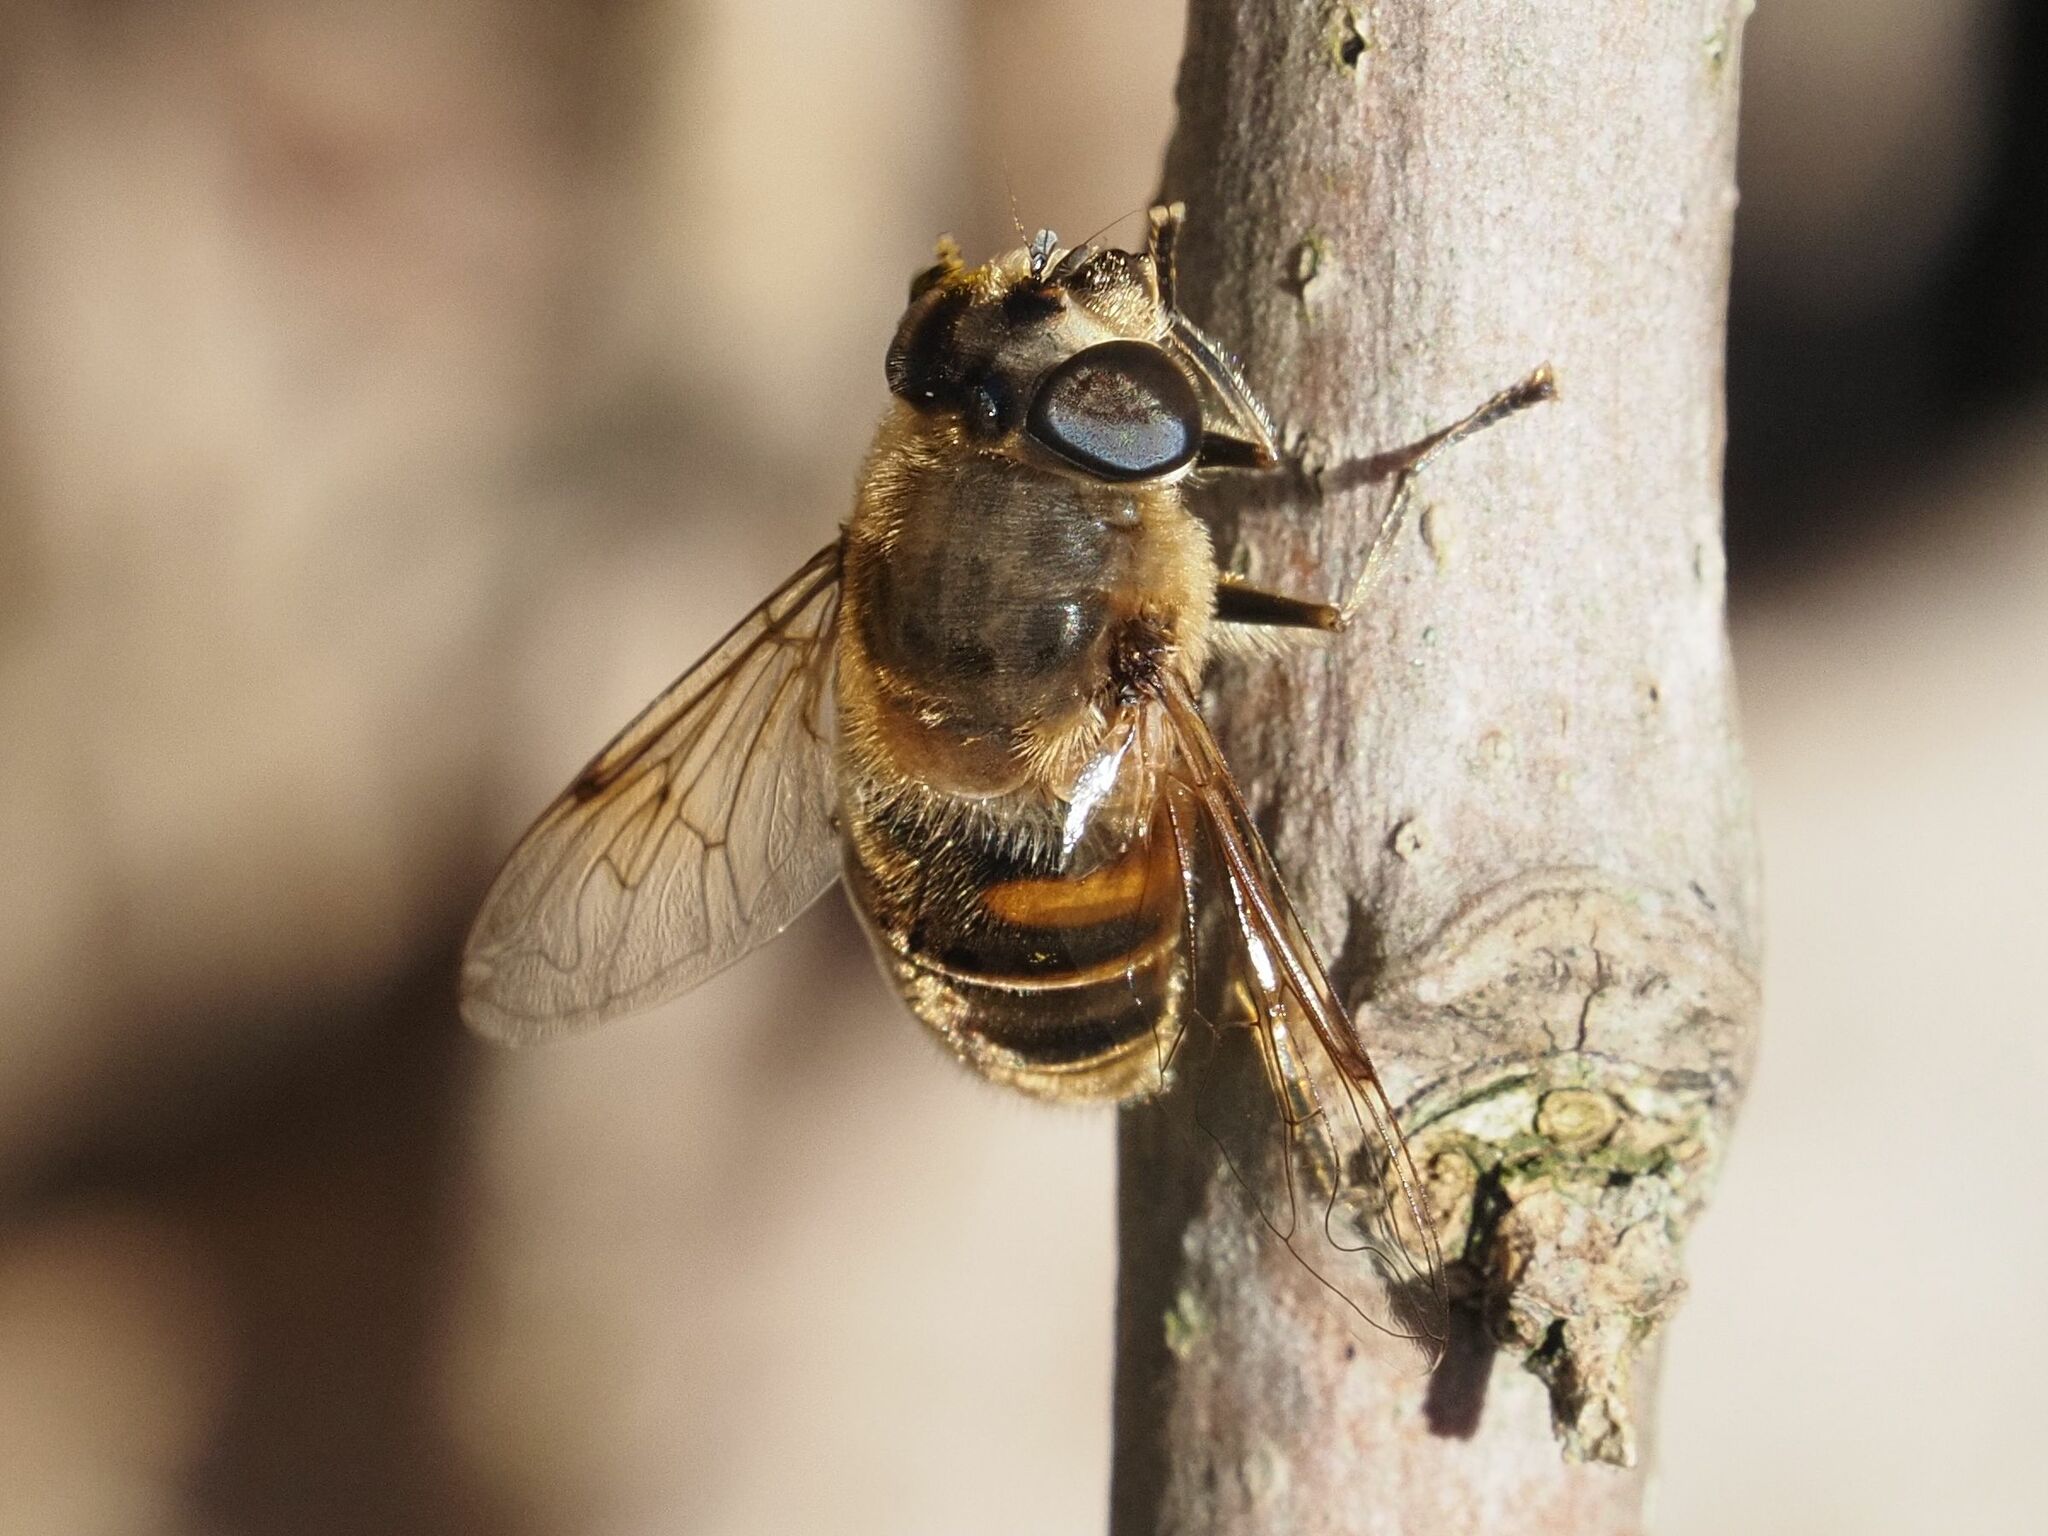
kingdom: Animalia
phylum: Arthropoda
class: Insecta
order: Diptera
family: Syrphidae
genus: Eristalis
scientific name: Eristalis tenax
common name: Drone fly
